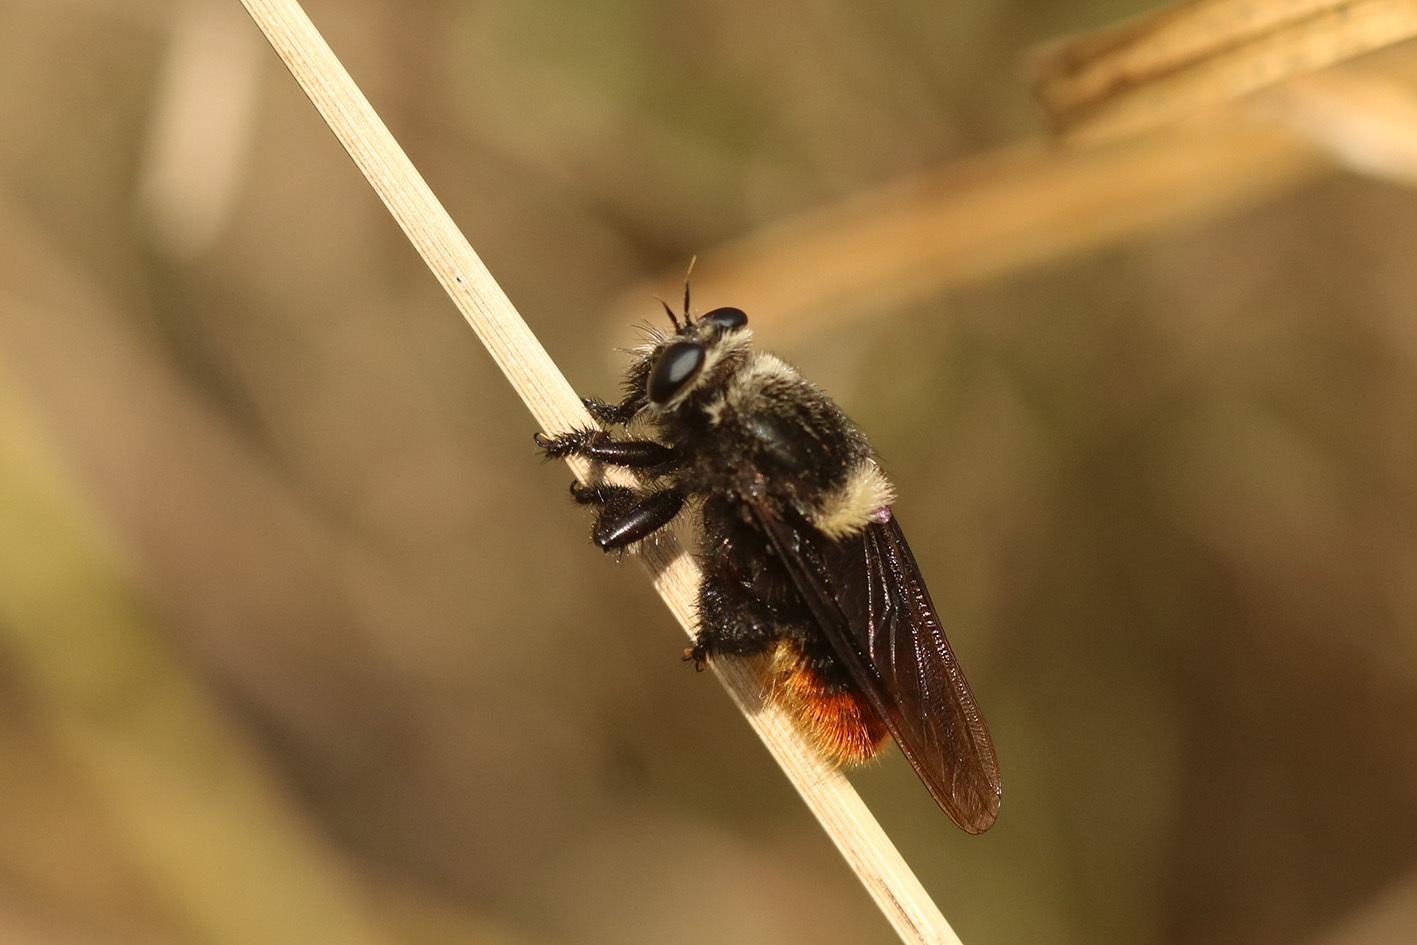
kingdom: Animalia
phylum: Arthropoda
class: Insecta
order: Diptera
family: Asilidae
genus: Mallophora
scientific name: Mallophora ruficauda
